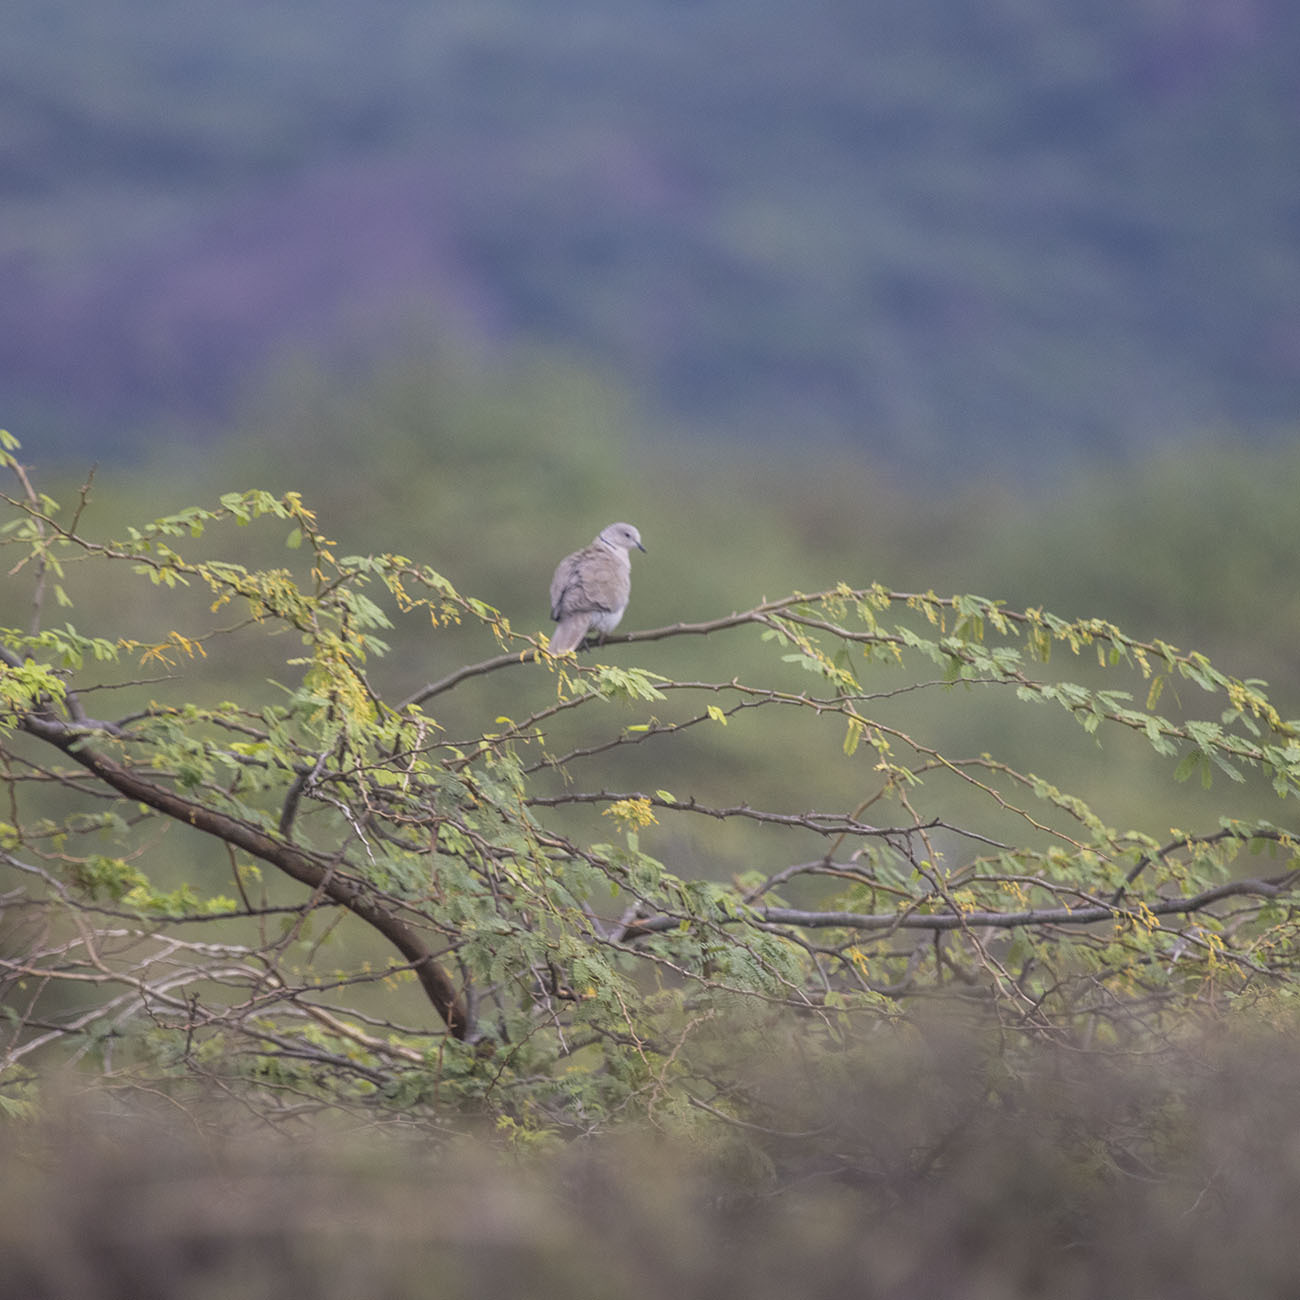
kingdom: Animalia
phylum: Chordata
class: Aves
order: Columbiformes
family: Columbidae
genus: Streptopelia
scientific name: Streptopelia decaocto
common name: Eurasian collared dove
